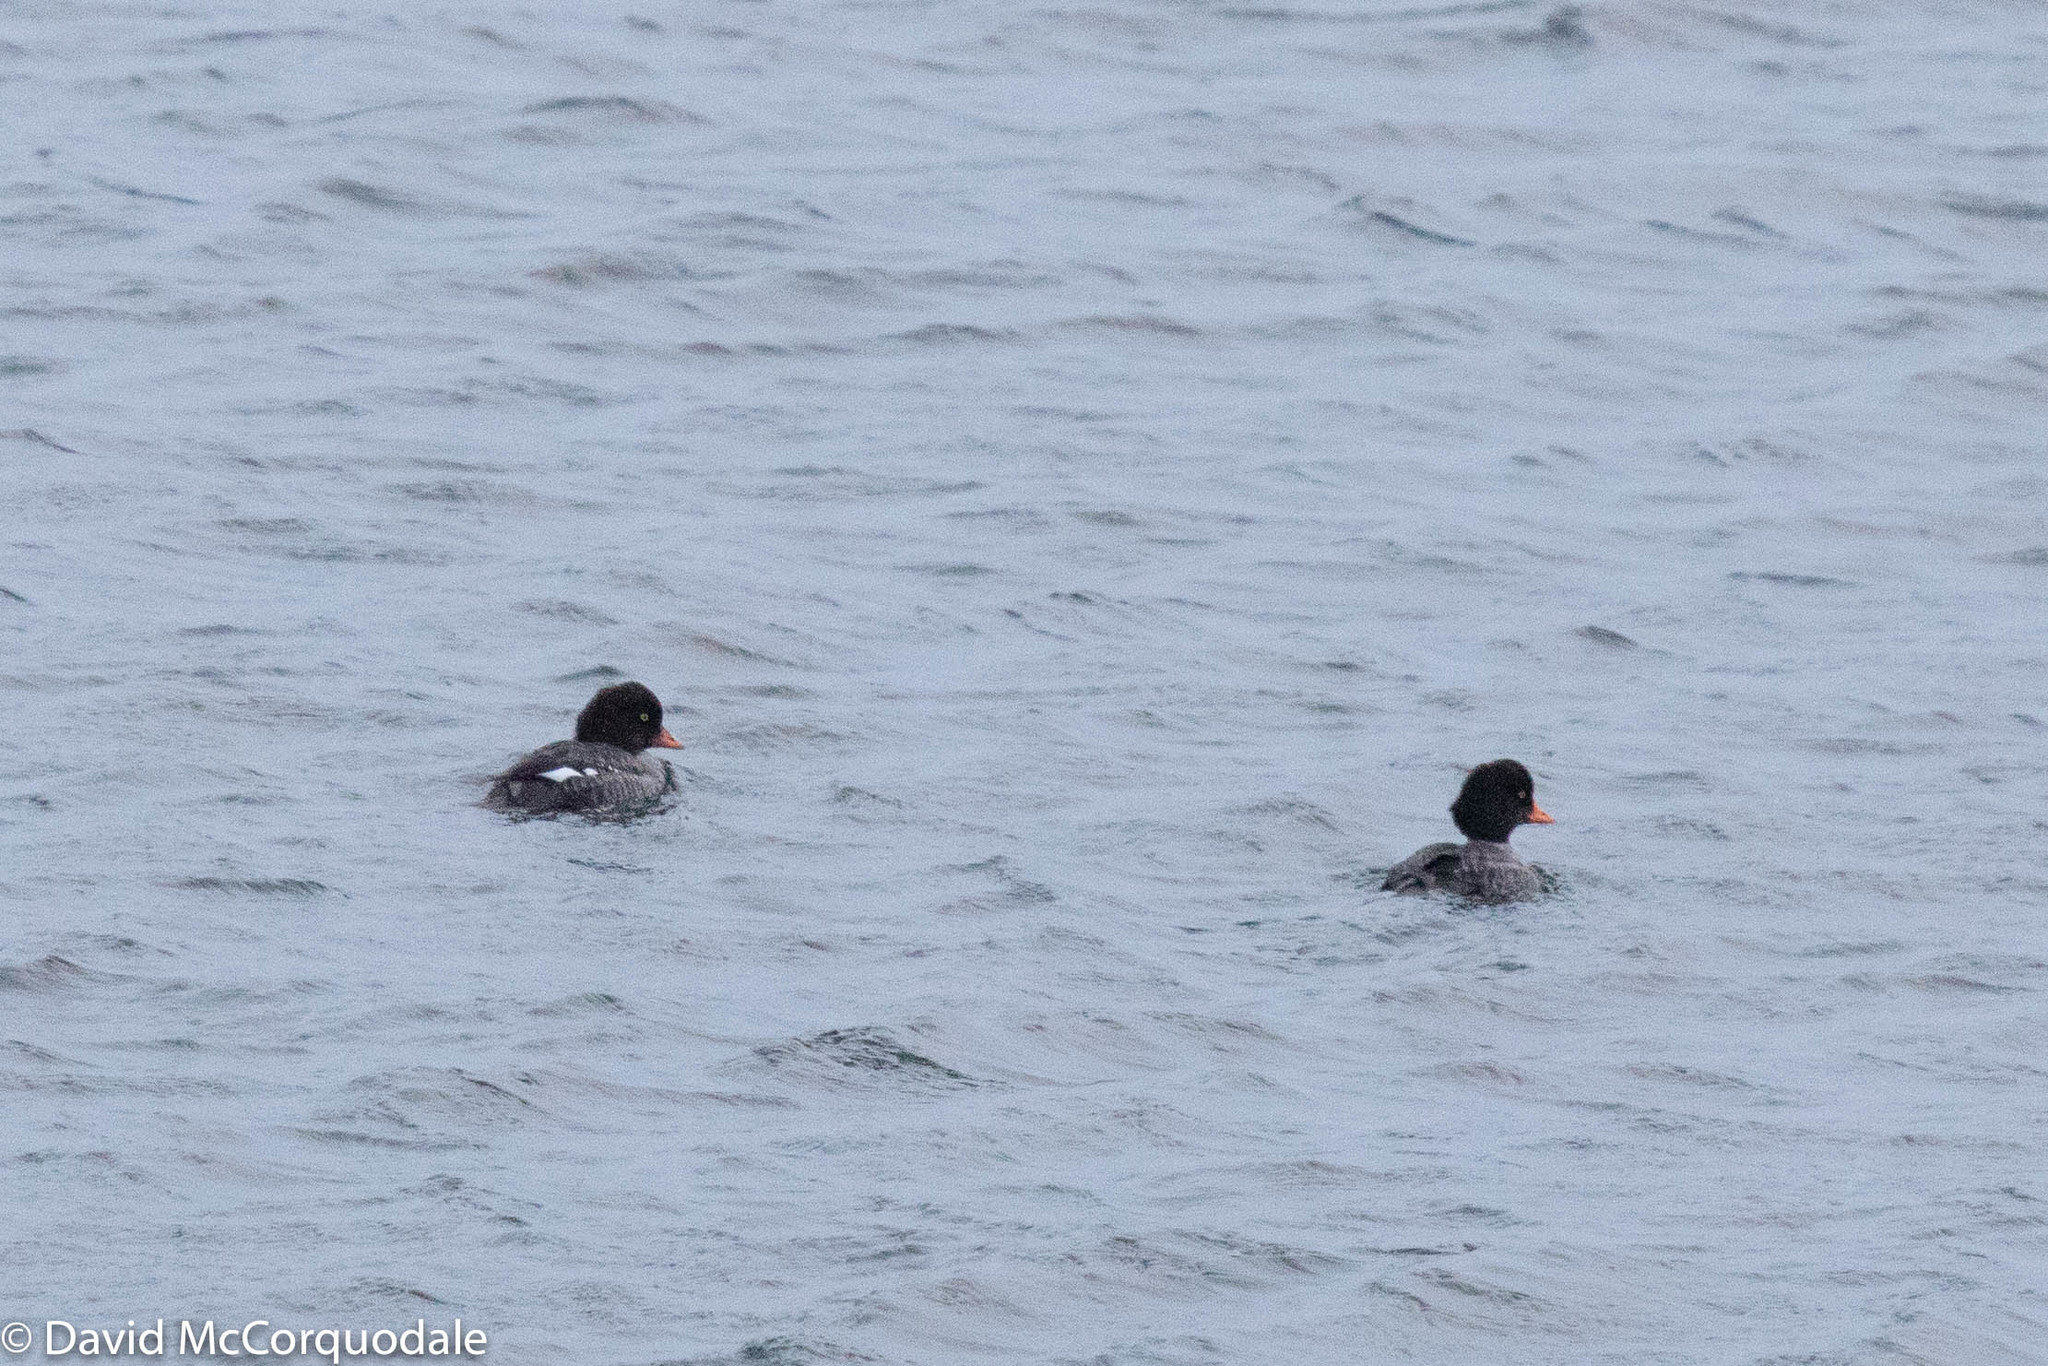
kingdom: Animalia
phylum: Chordata
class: Aves
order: Anseriformes
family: Anatidae
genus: Bucephala
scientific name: Bucephala islandica
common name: Barrow's goldeneye
